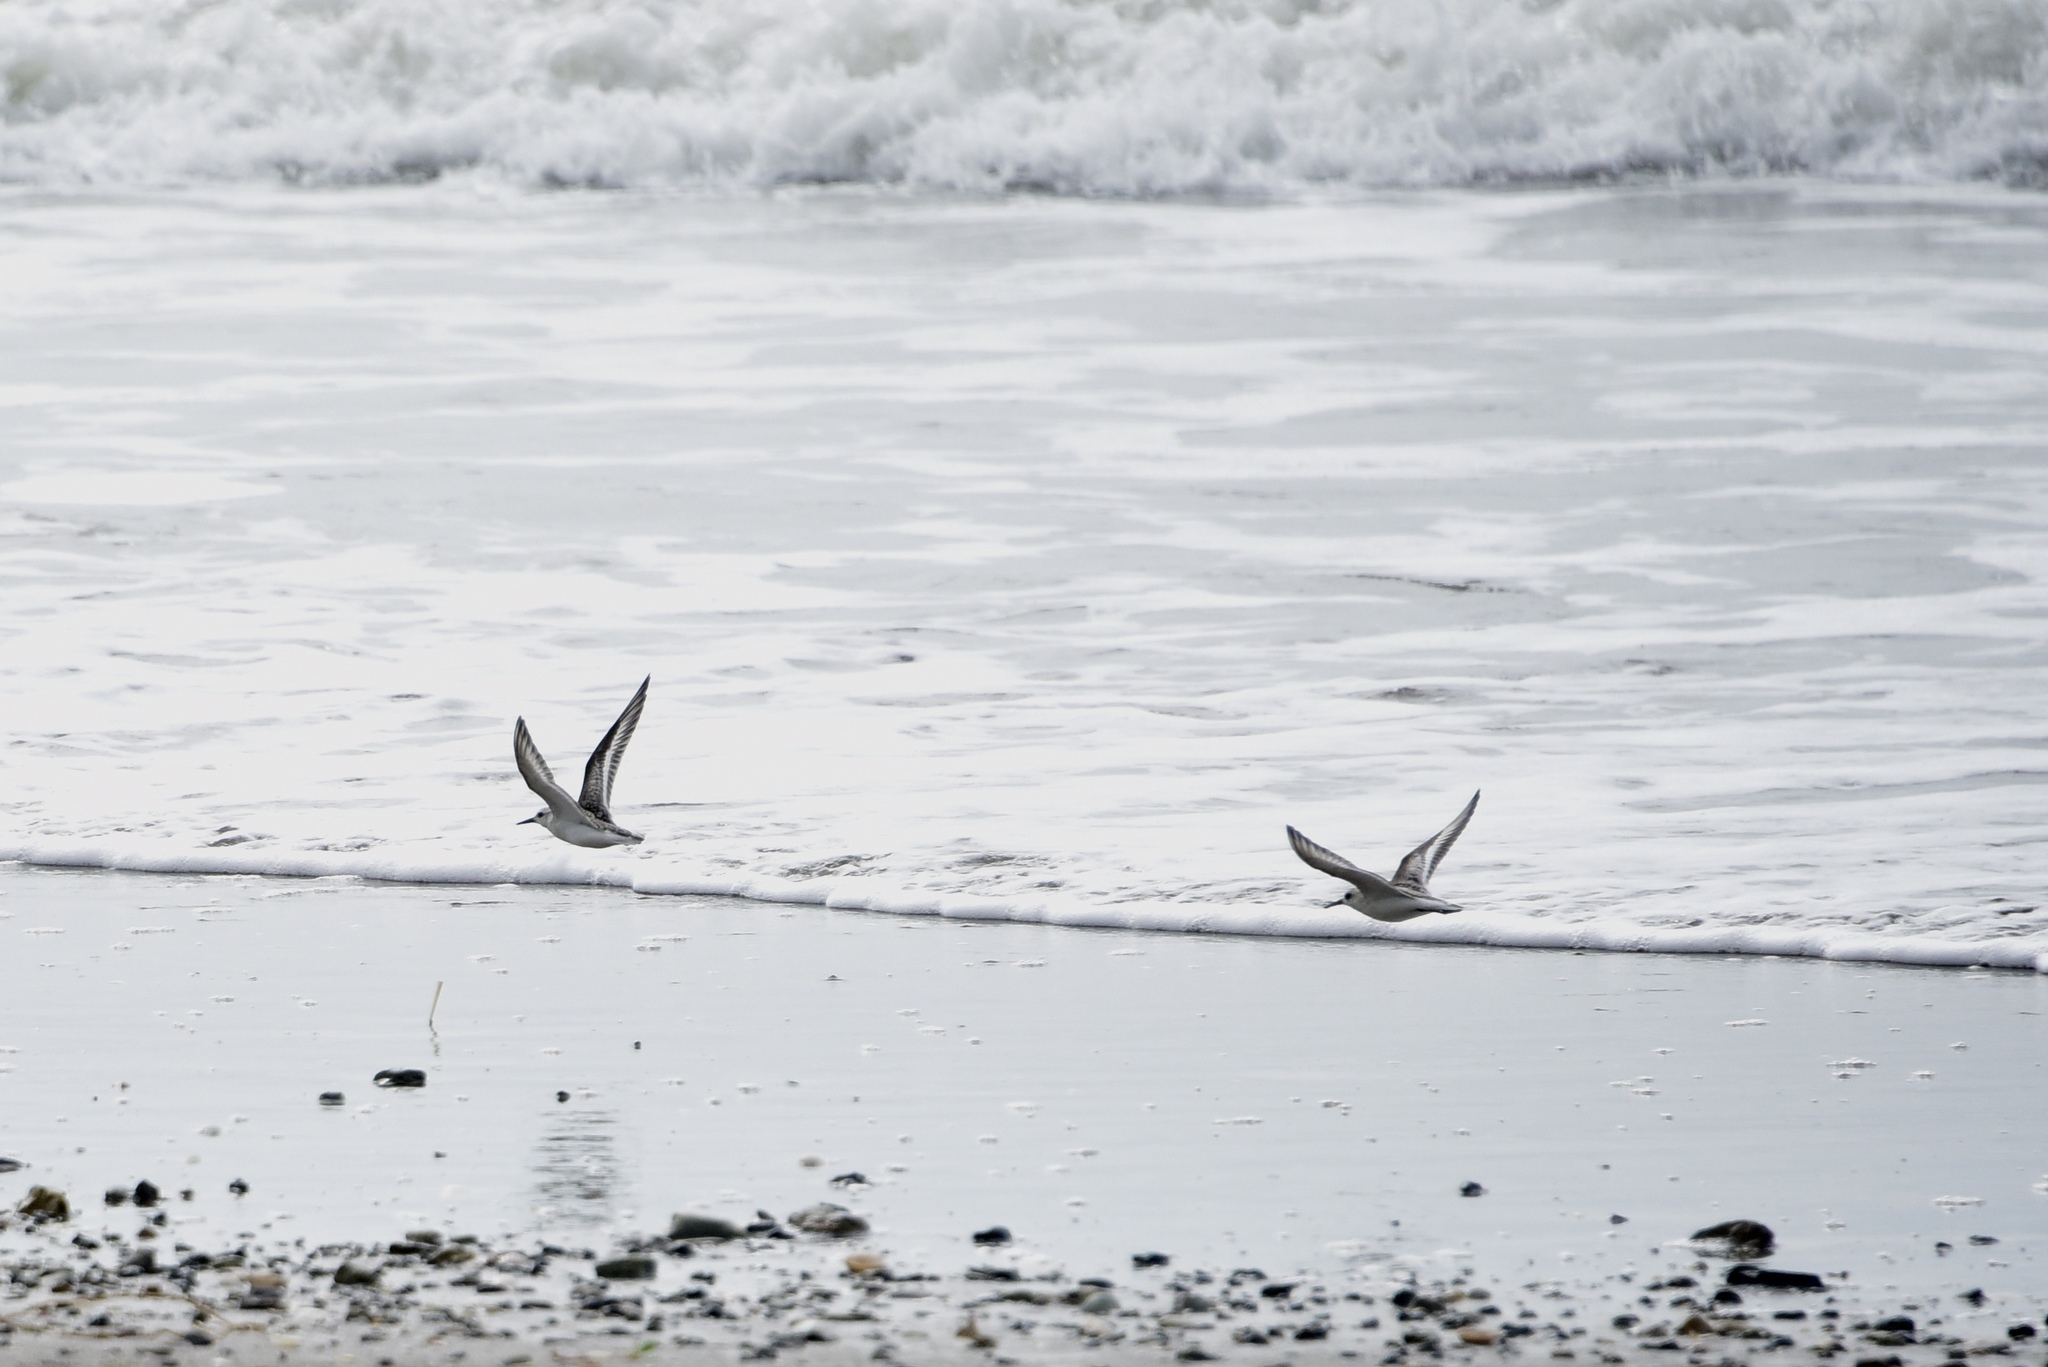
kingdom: Animalia
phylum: Chordata
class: Aves
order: Charadriiformes
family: Scolopacidae
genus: Calidris
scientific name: Calidris alba
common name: Sanderling
